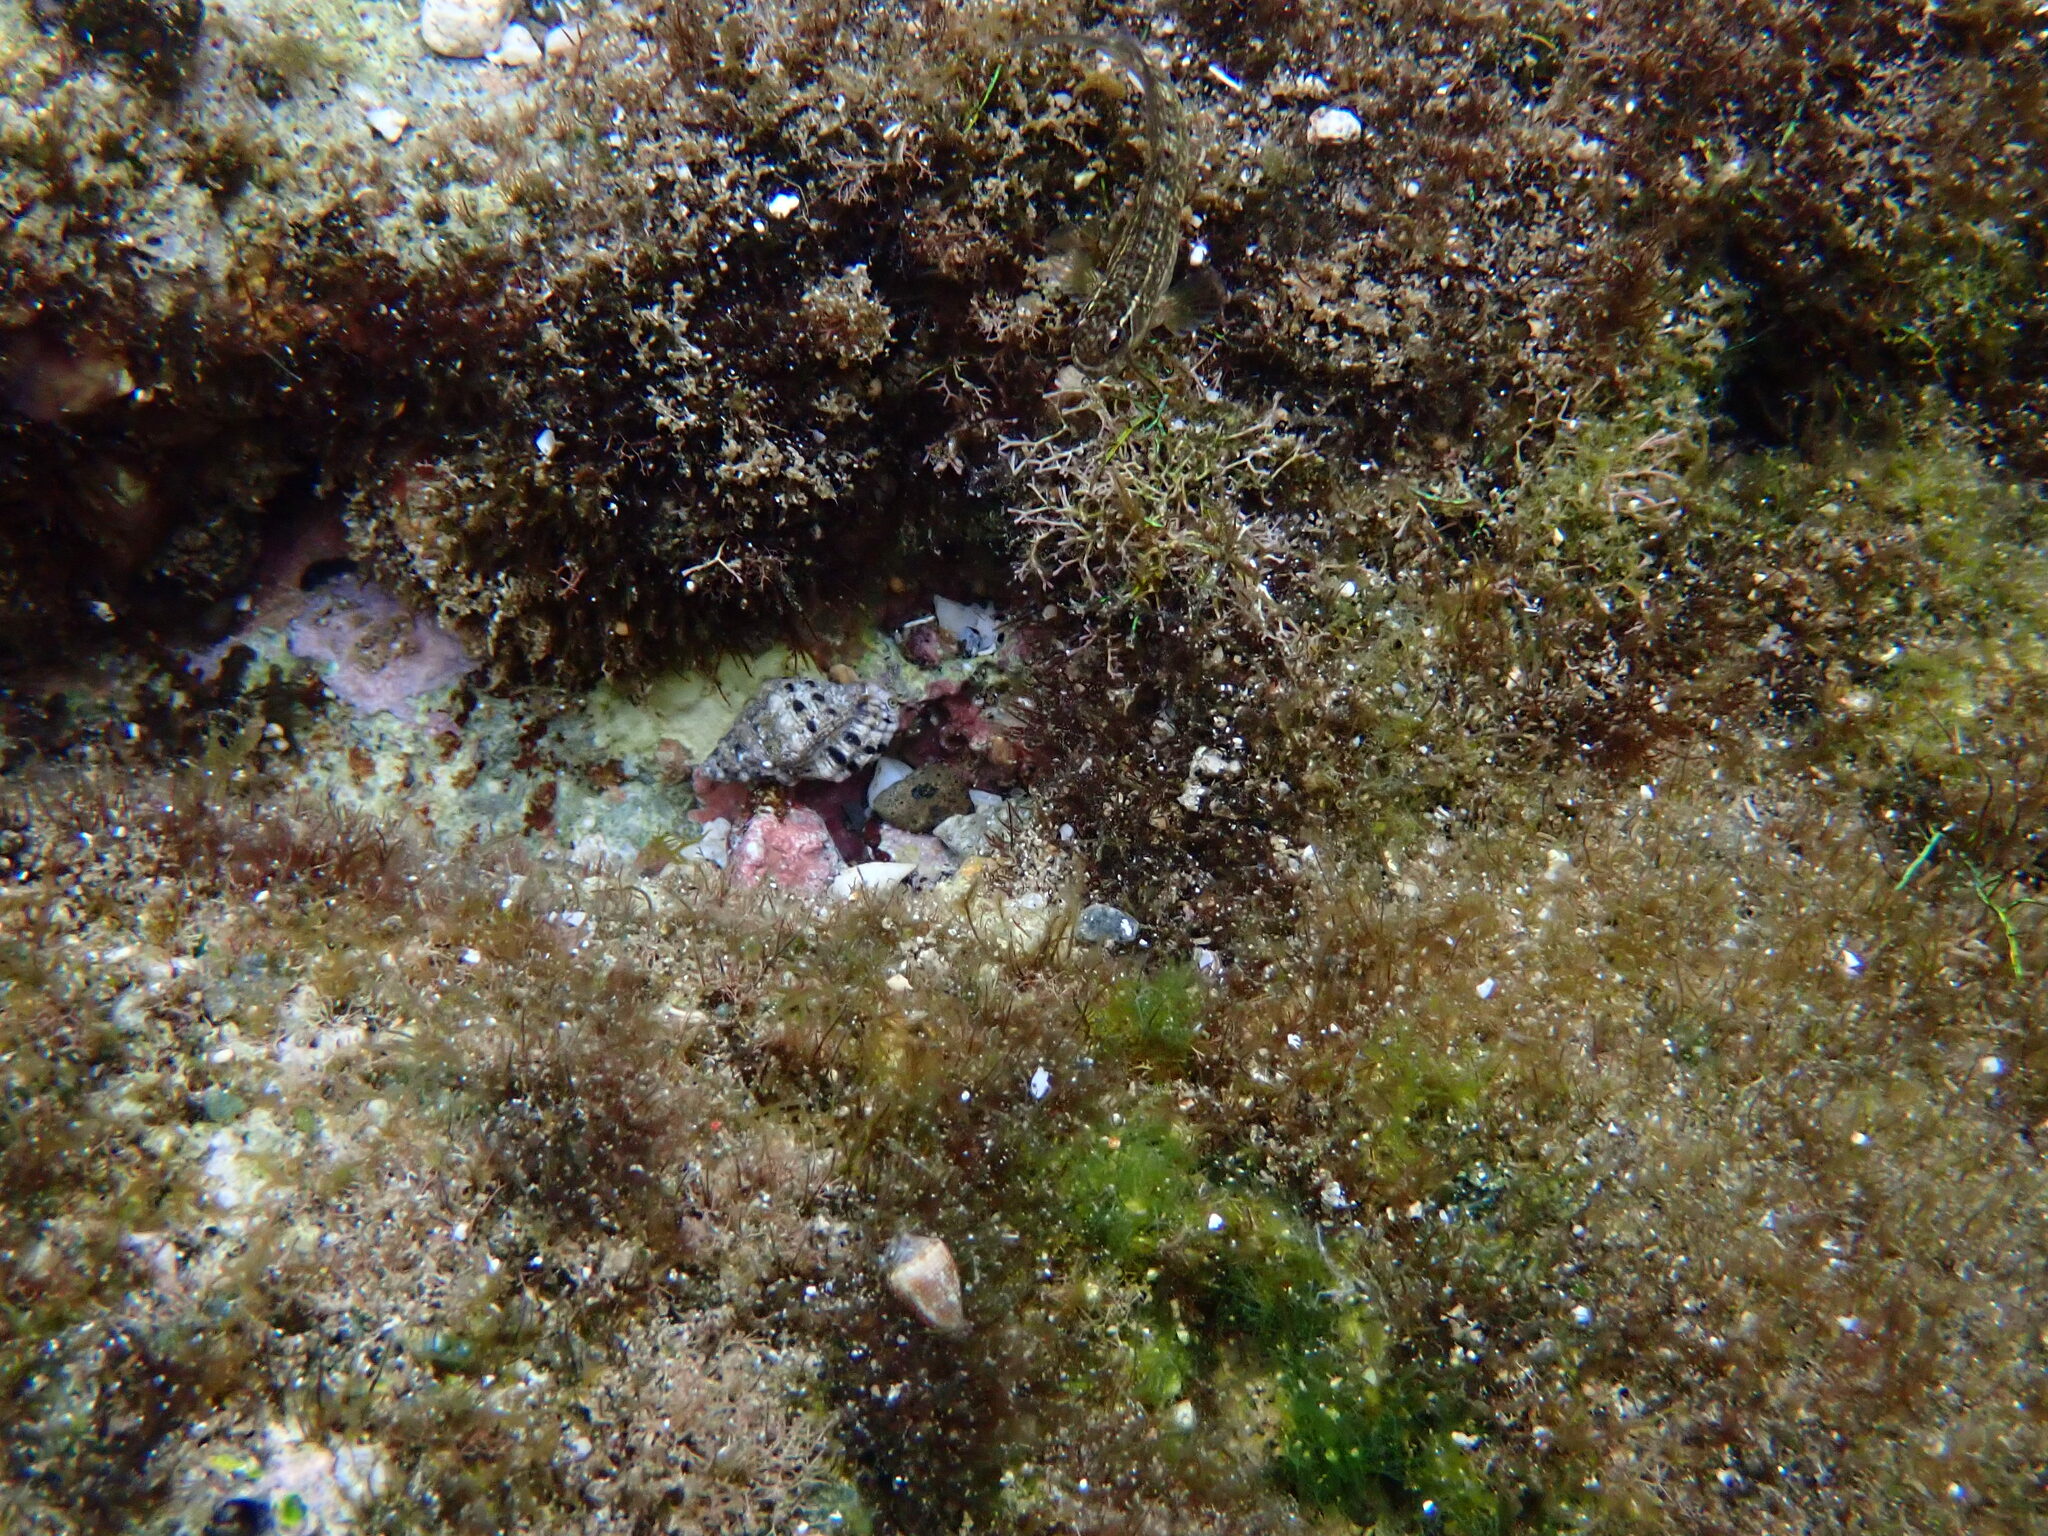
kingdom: Animalia
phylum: Mollusca
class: Gastropoda
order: Neogastropoda
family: Muricidae
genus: Drupella
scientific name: Drupella margariticola
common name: Shouldered castor bean
